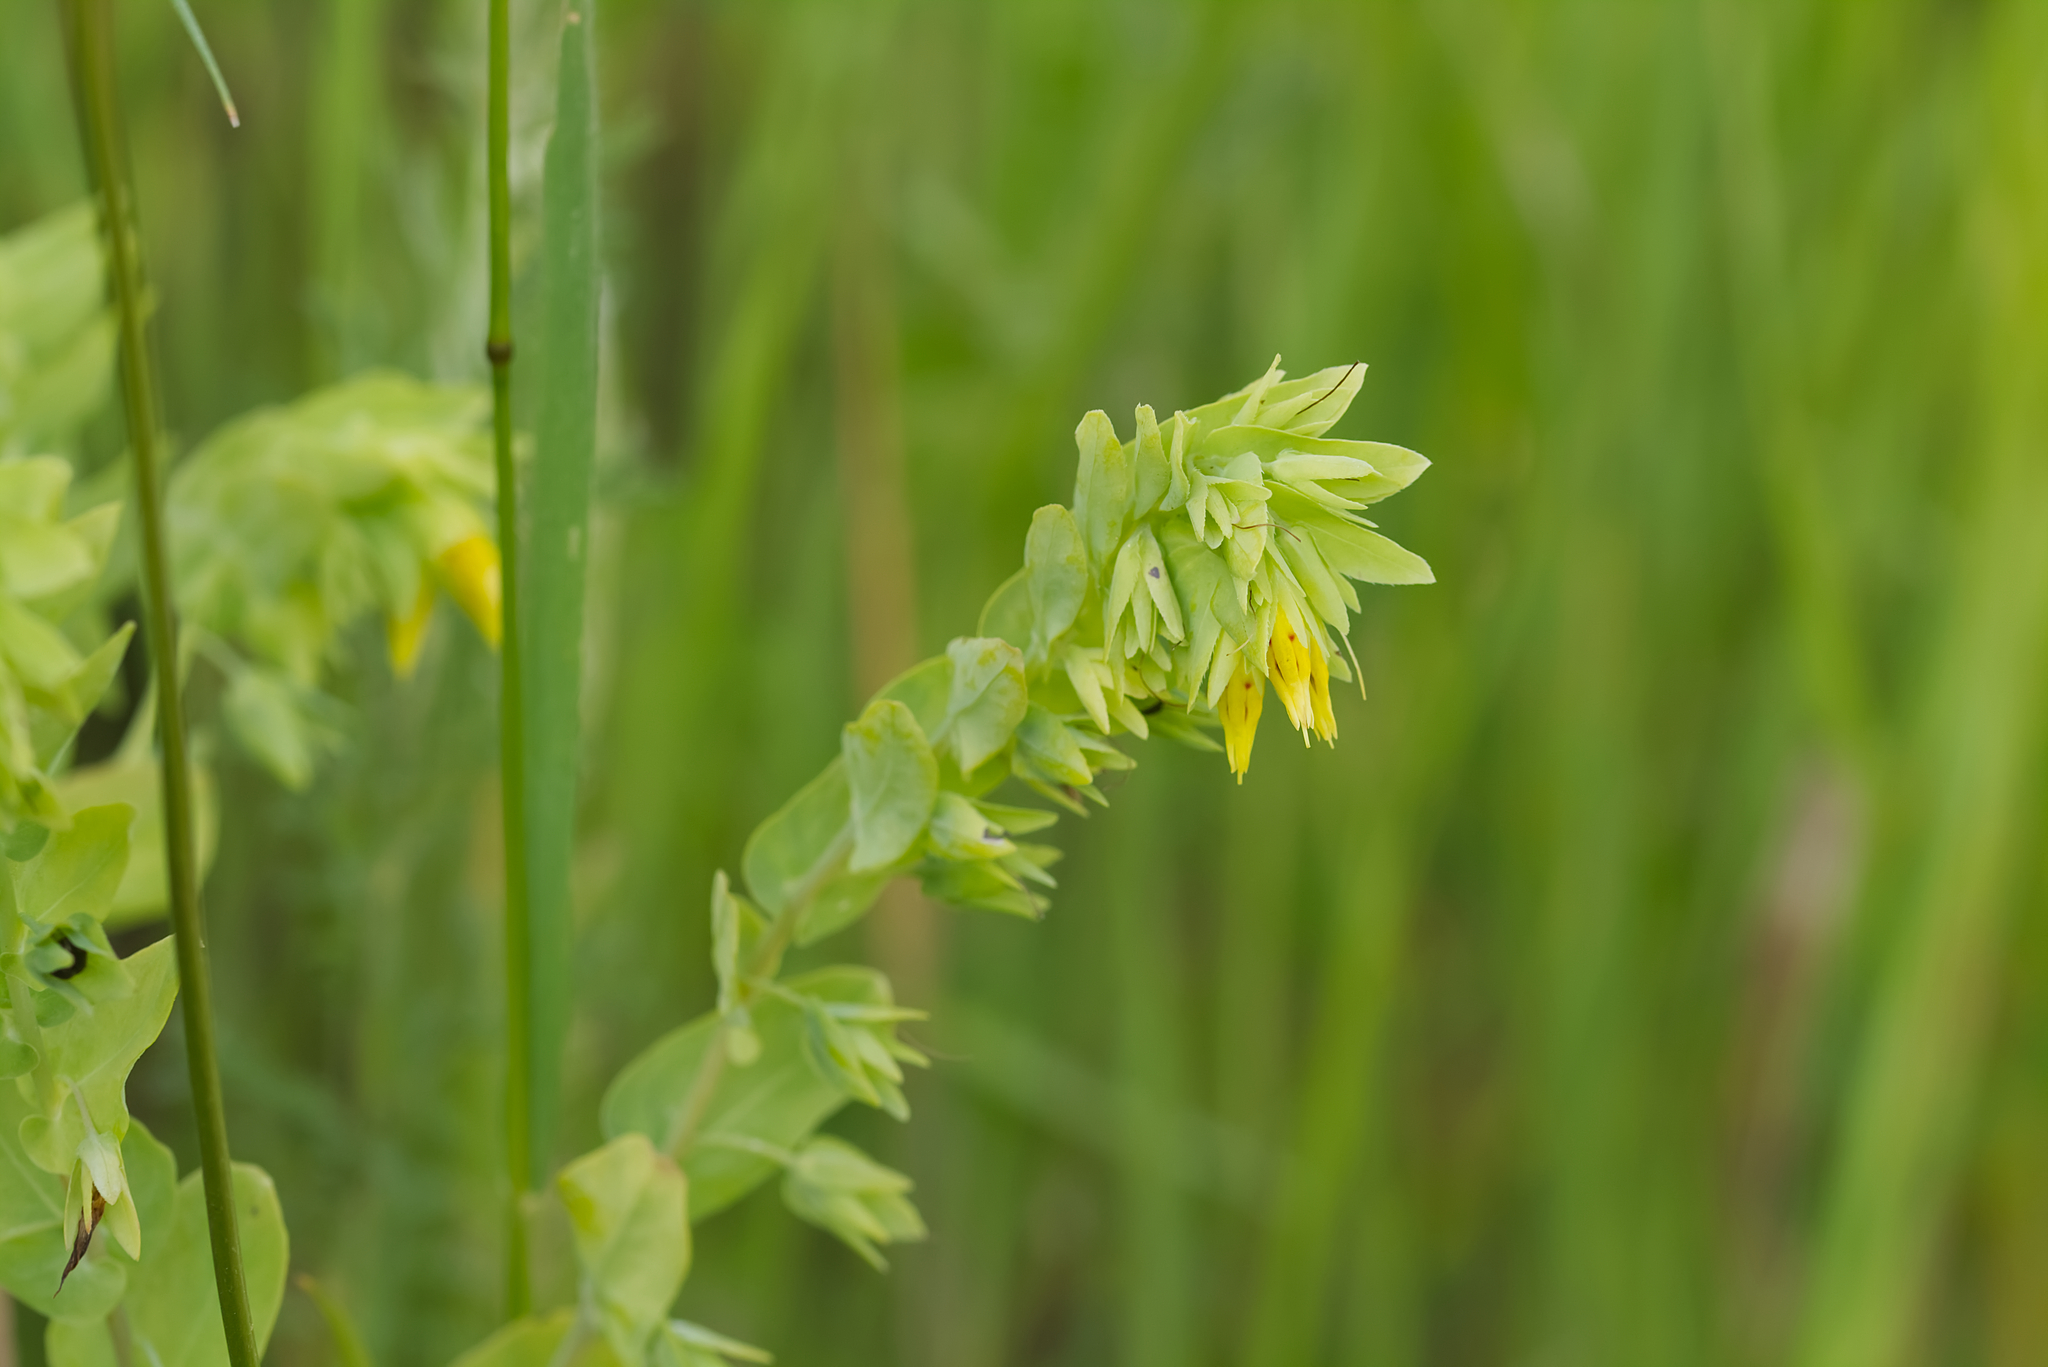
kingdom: Plantae
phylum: Tracheophyta
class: Magnoliopsida
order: Boraginales
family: Boraginaceae
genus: Cerinthe
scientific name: Cerinthe minor
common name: Lesser honeywort
